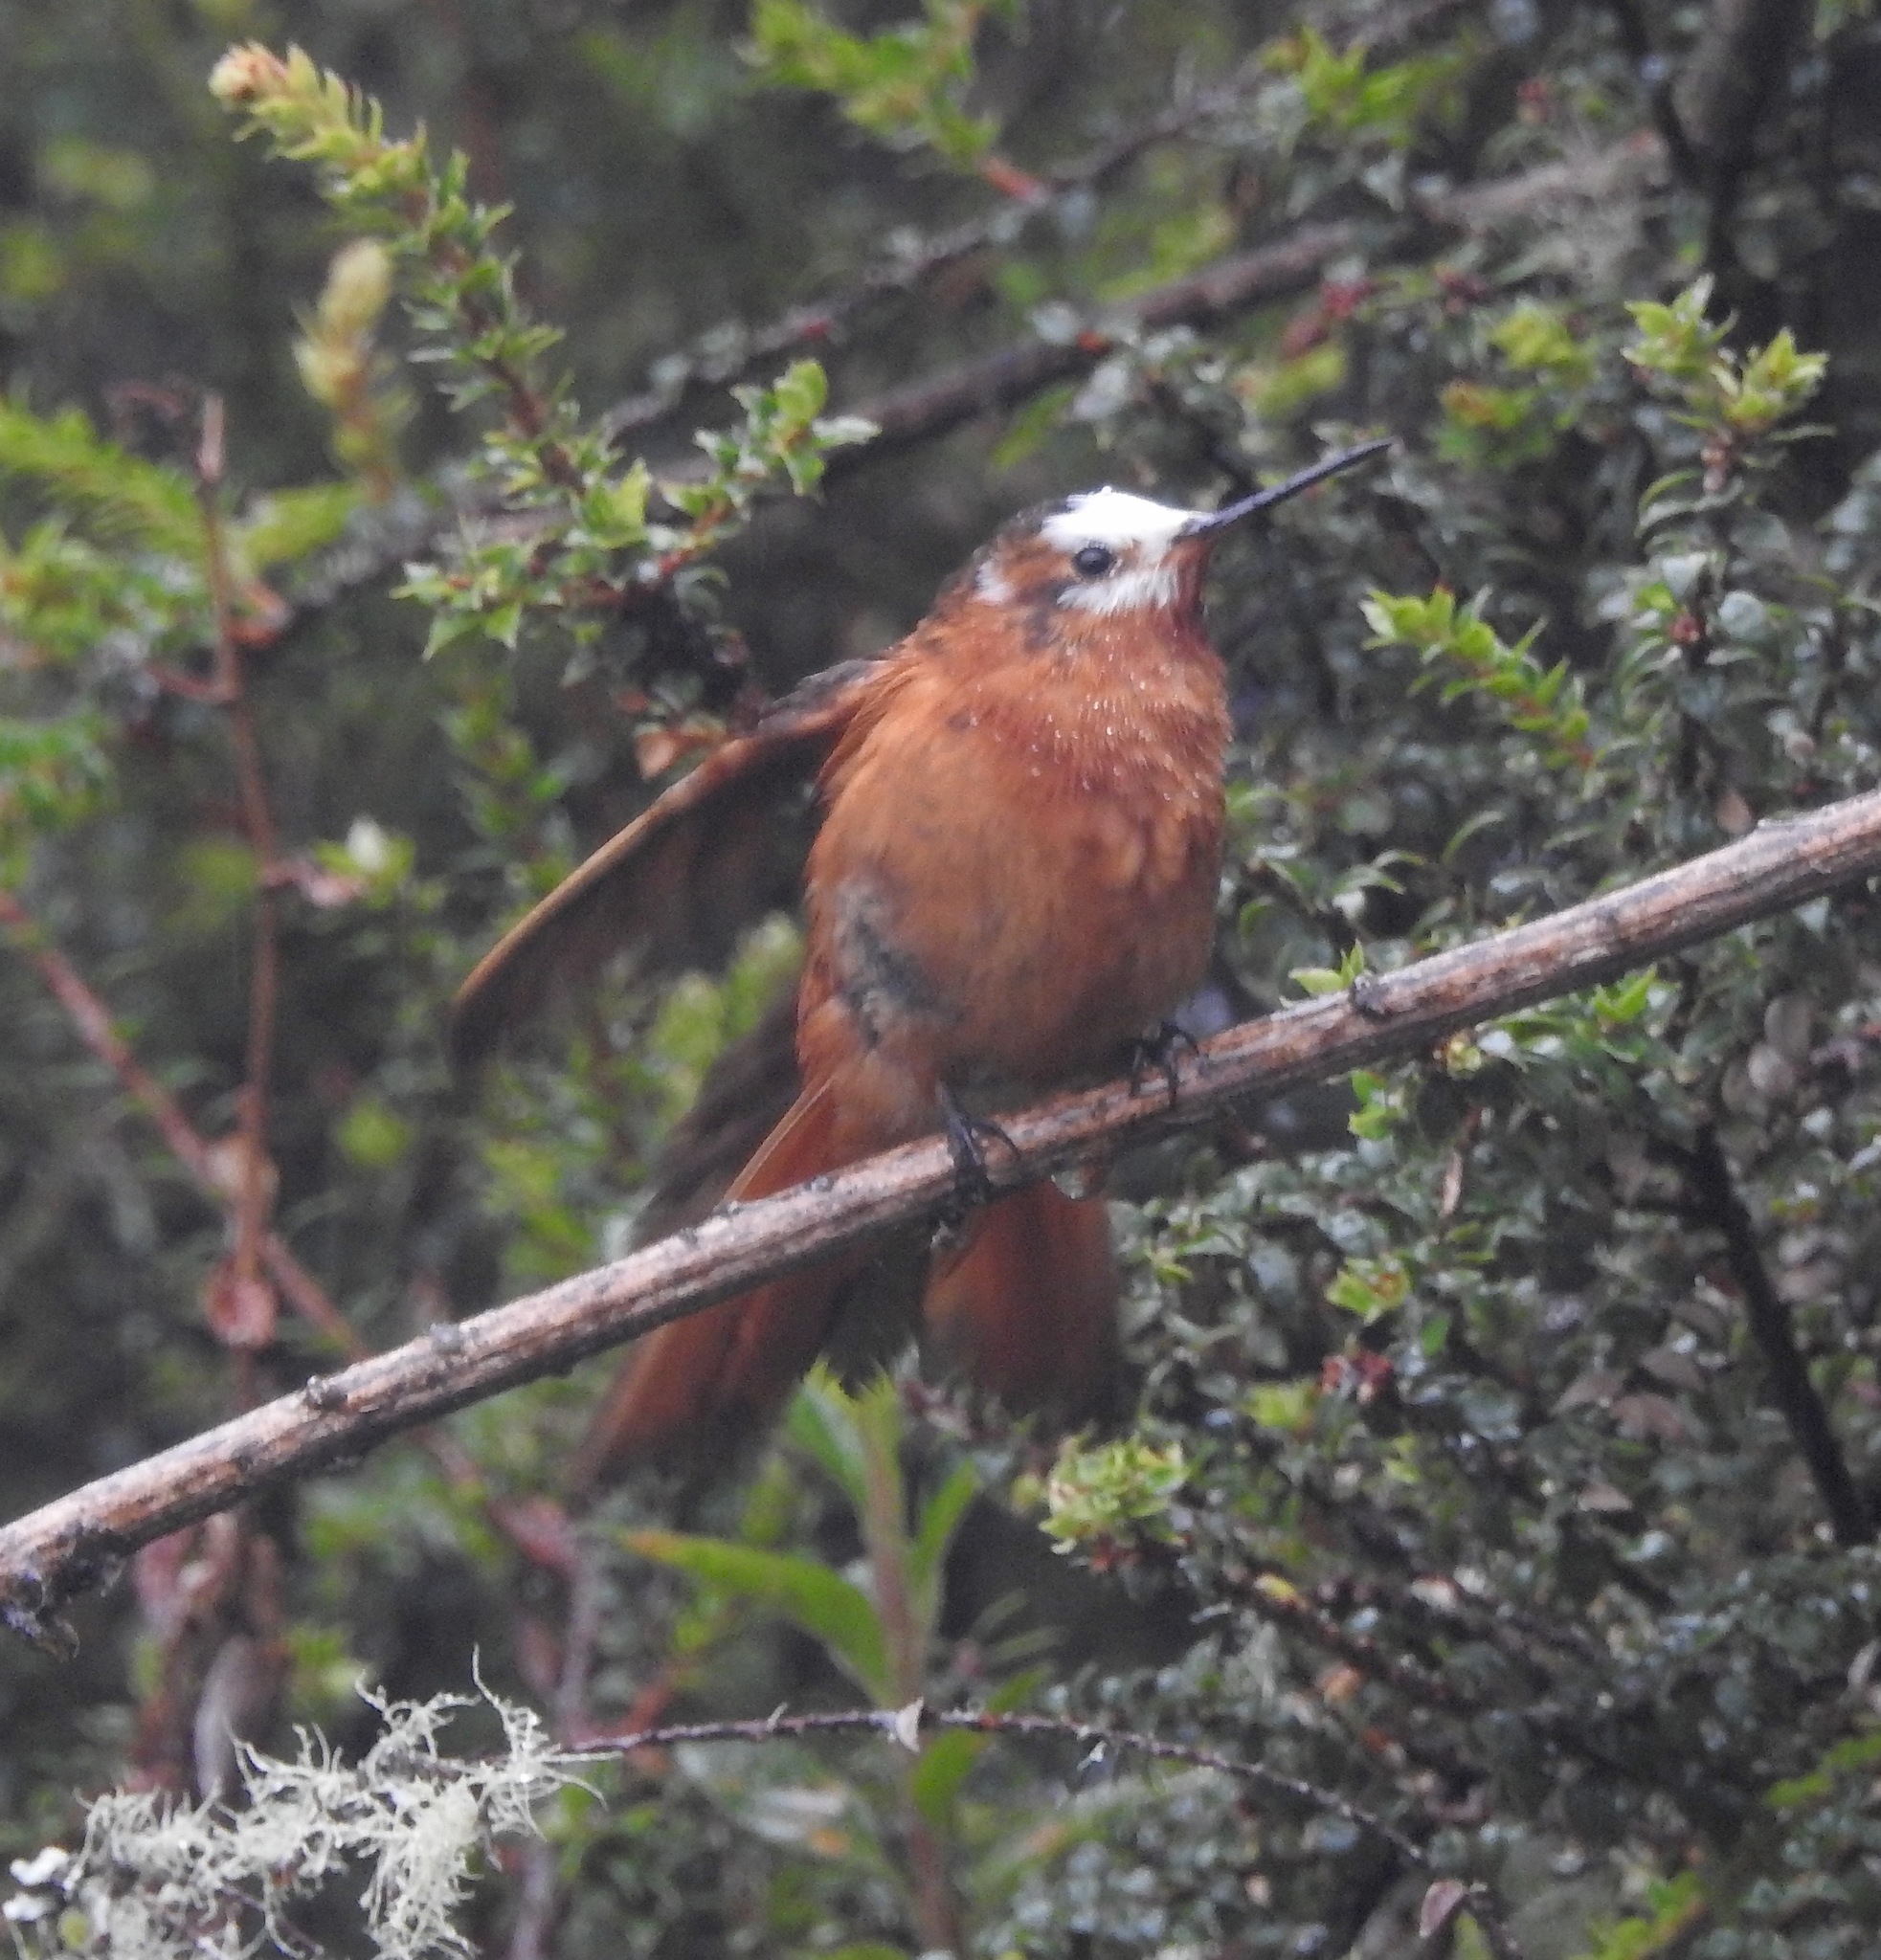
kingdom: Animalia
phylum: Chordata
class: Aves
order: Apodiformes
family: Trochilidae
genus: Aglaeactis
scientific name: Aglaeactis cupripennis
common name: Shining sunbeam
